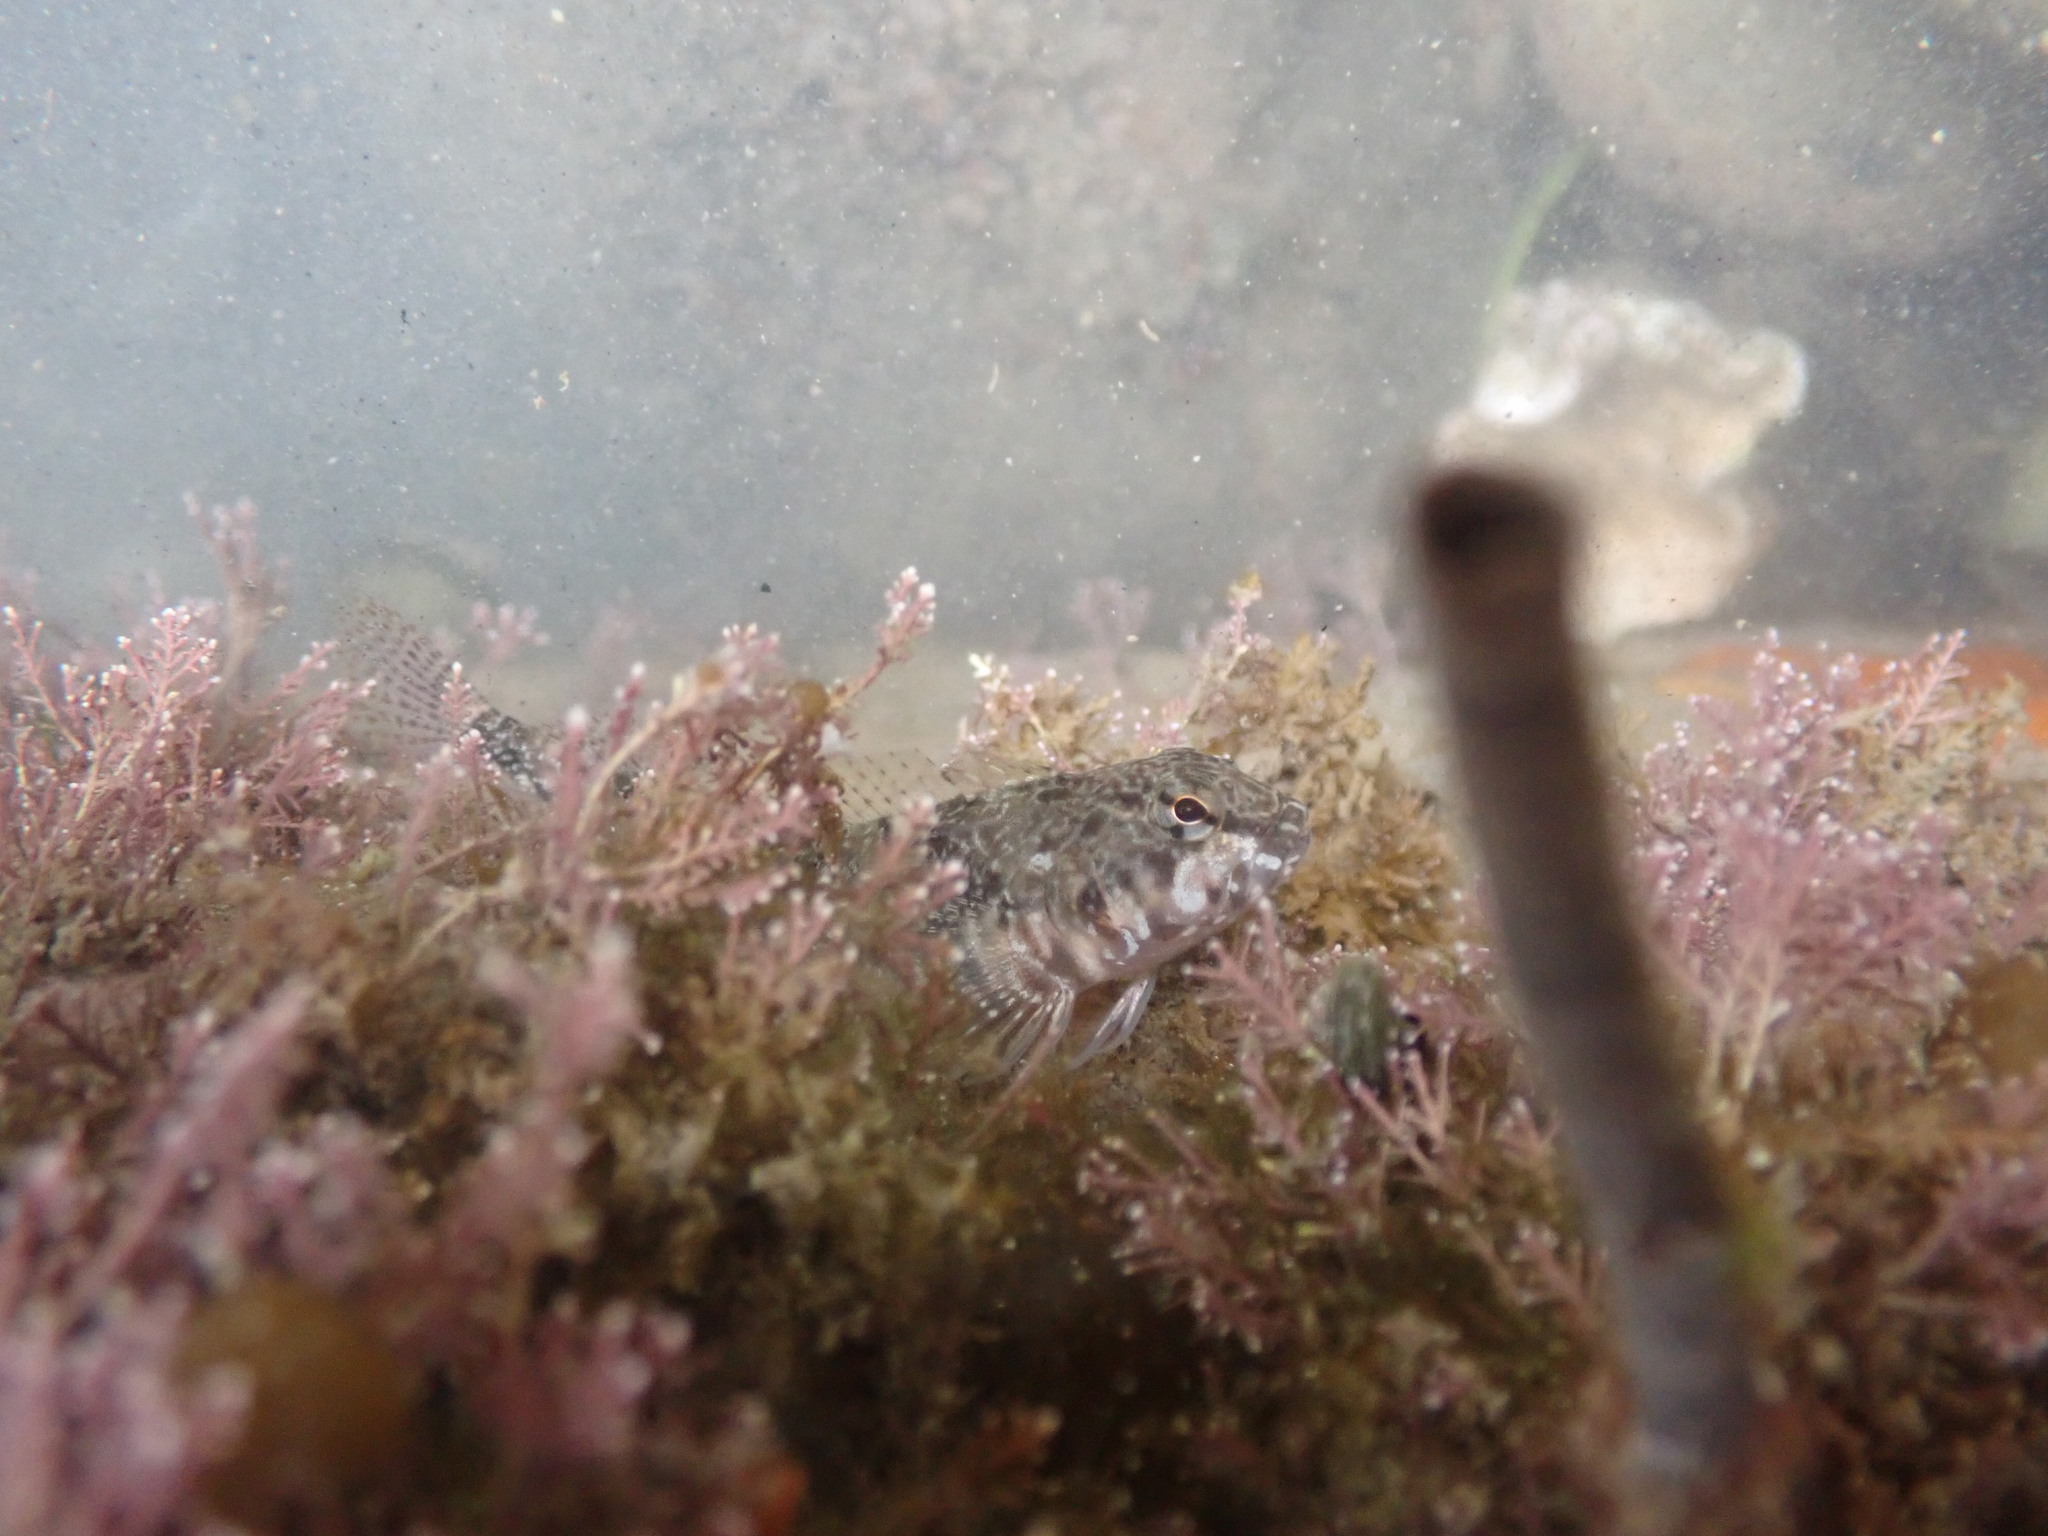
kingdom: Animalia
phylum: Chordata
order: Perciformes
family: Tripterygiidae
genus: Bellapiscis
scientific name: Bellapiscis medius
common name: Twister
